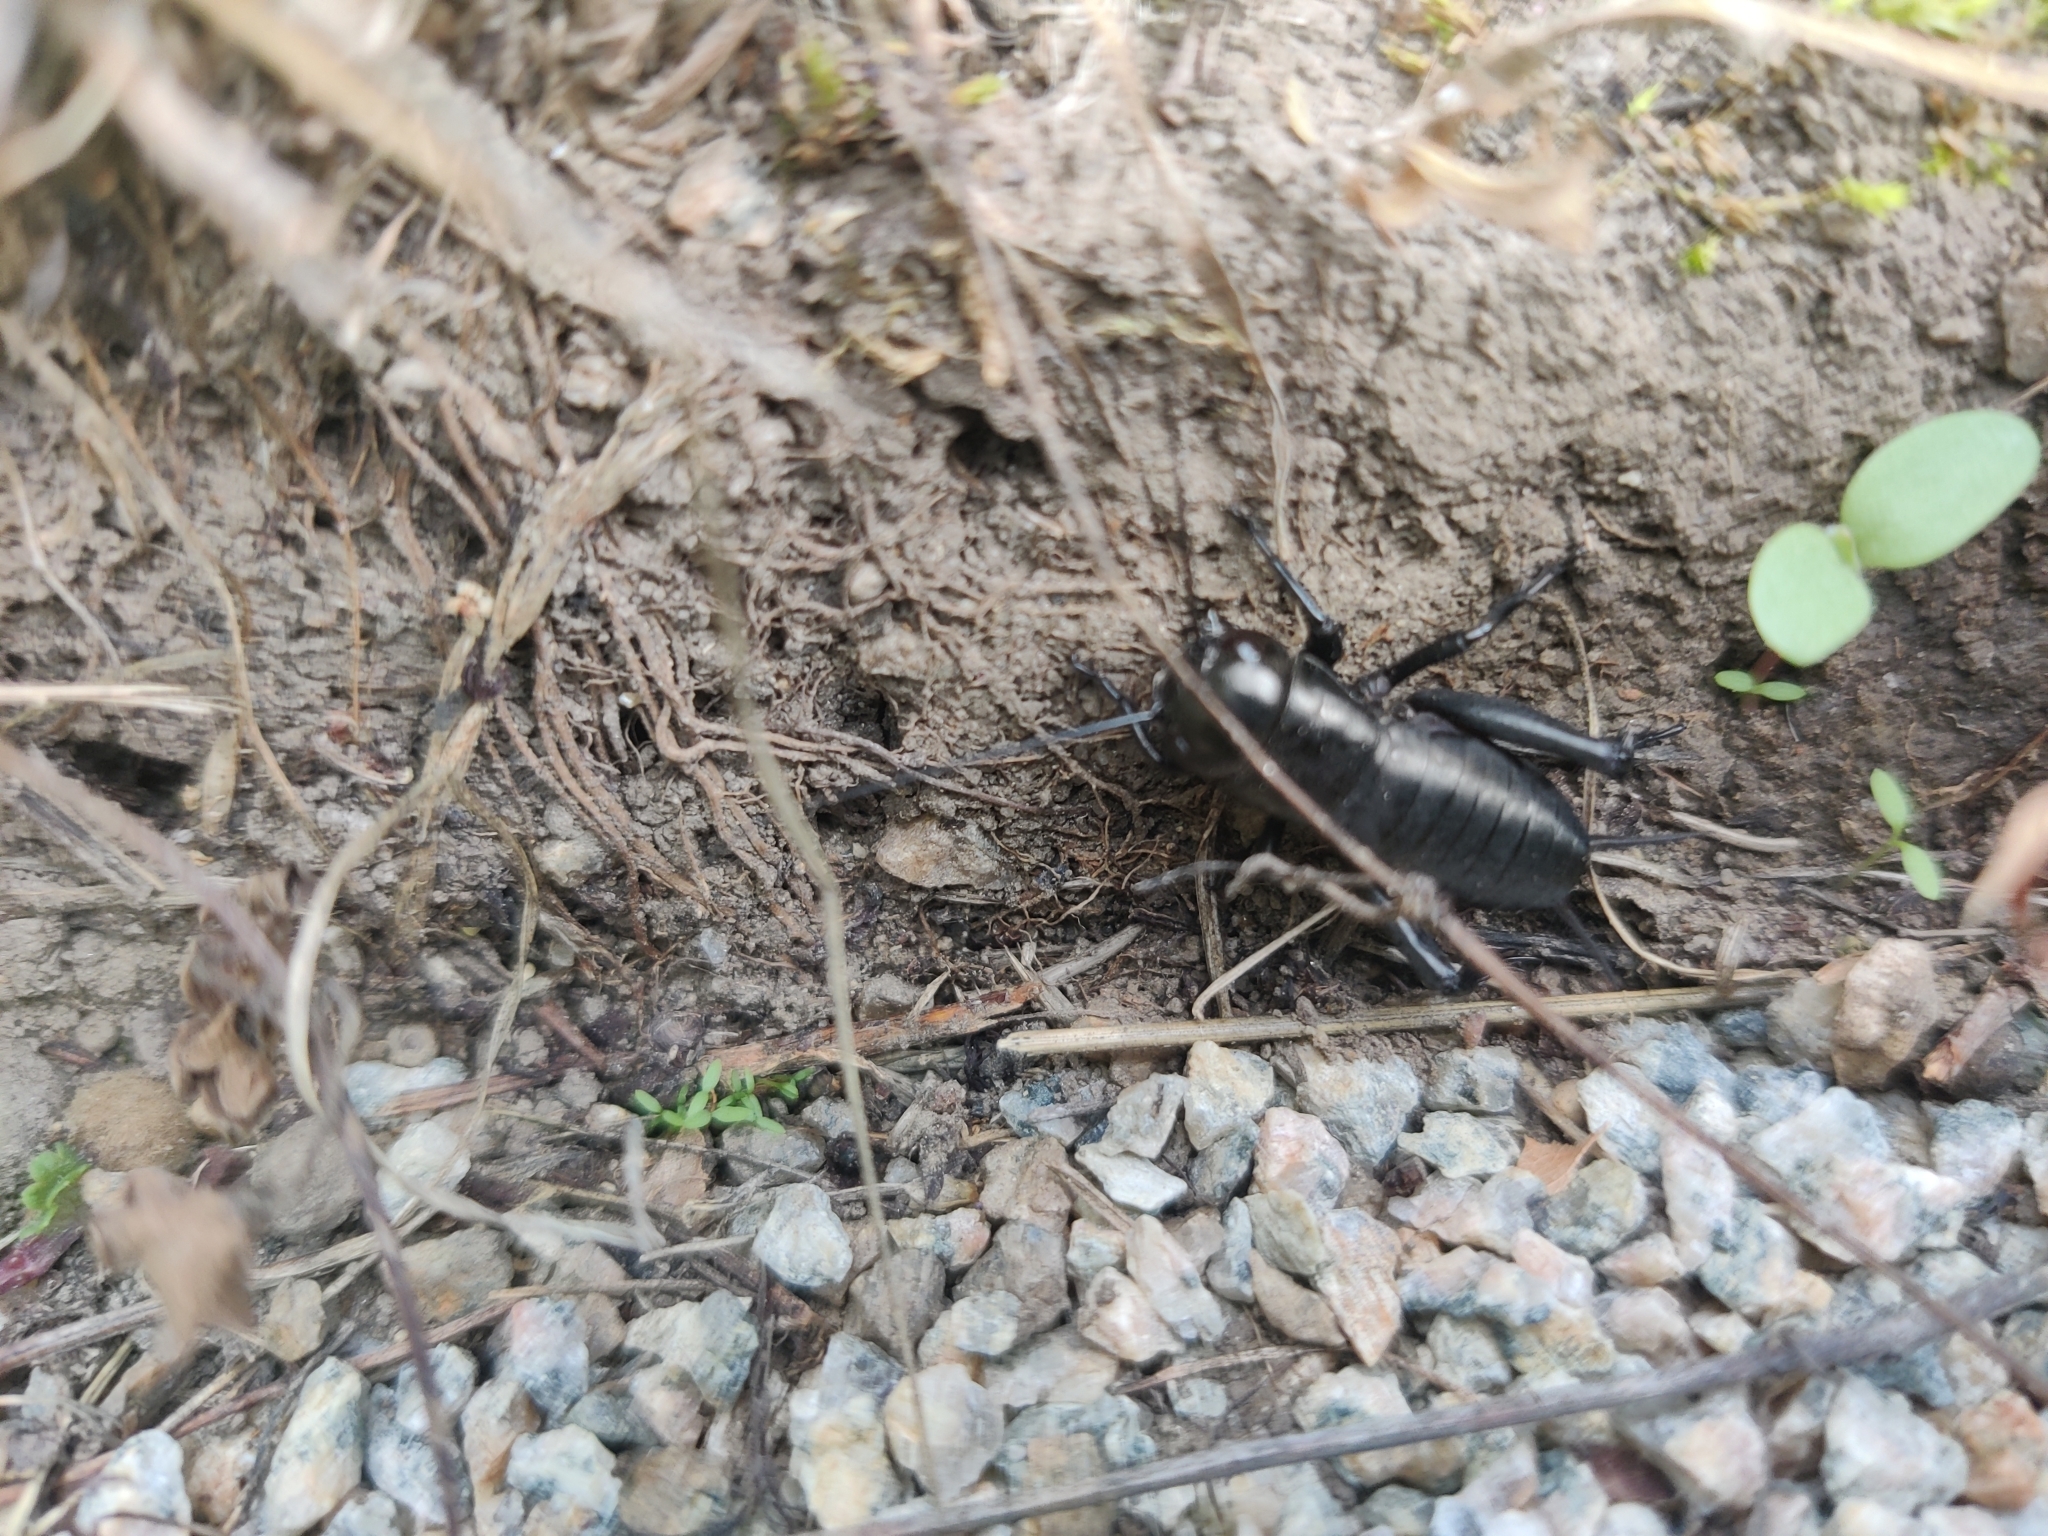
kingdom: Animalia
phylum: Arthropoda
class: Insecta
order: Orthoptera
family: Gryllidae
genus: Gryllus
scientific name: Gryllus campestris
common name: Field cricket
